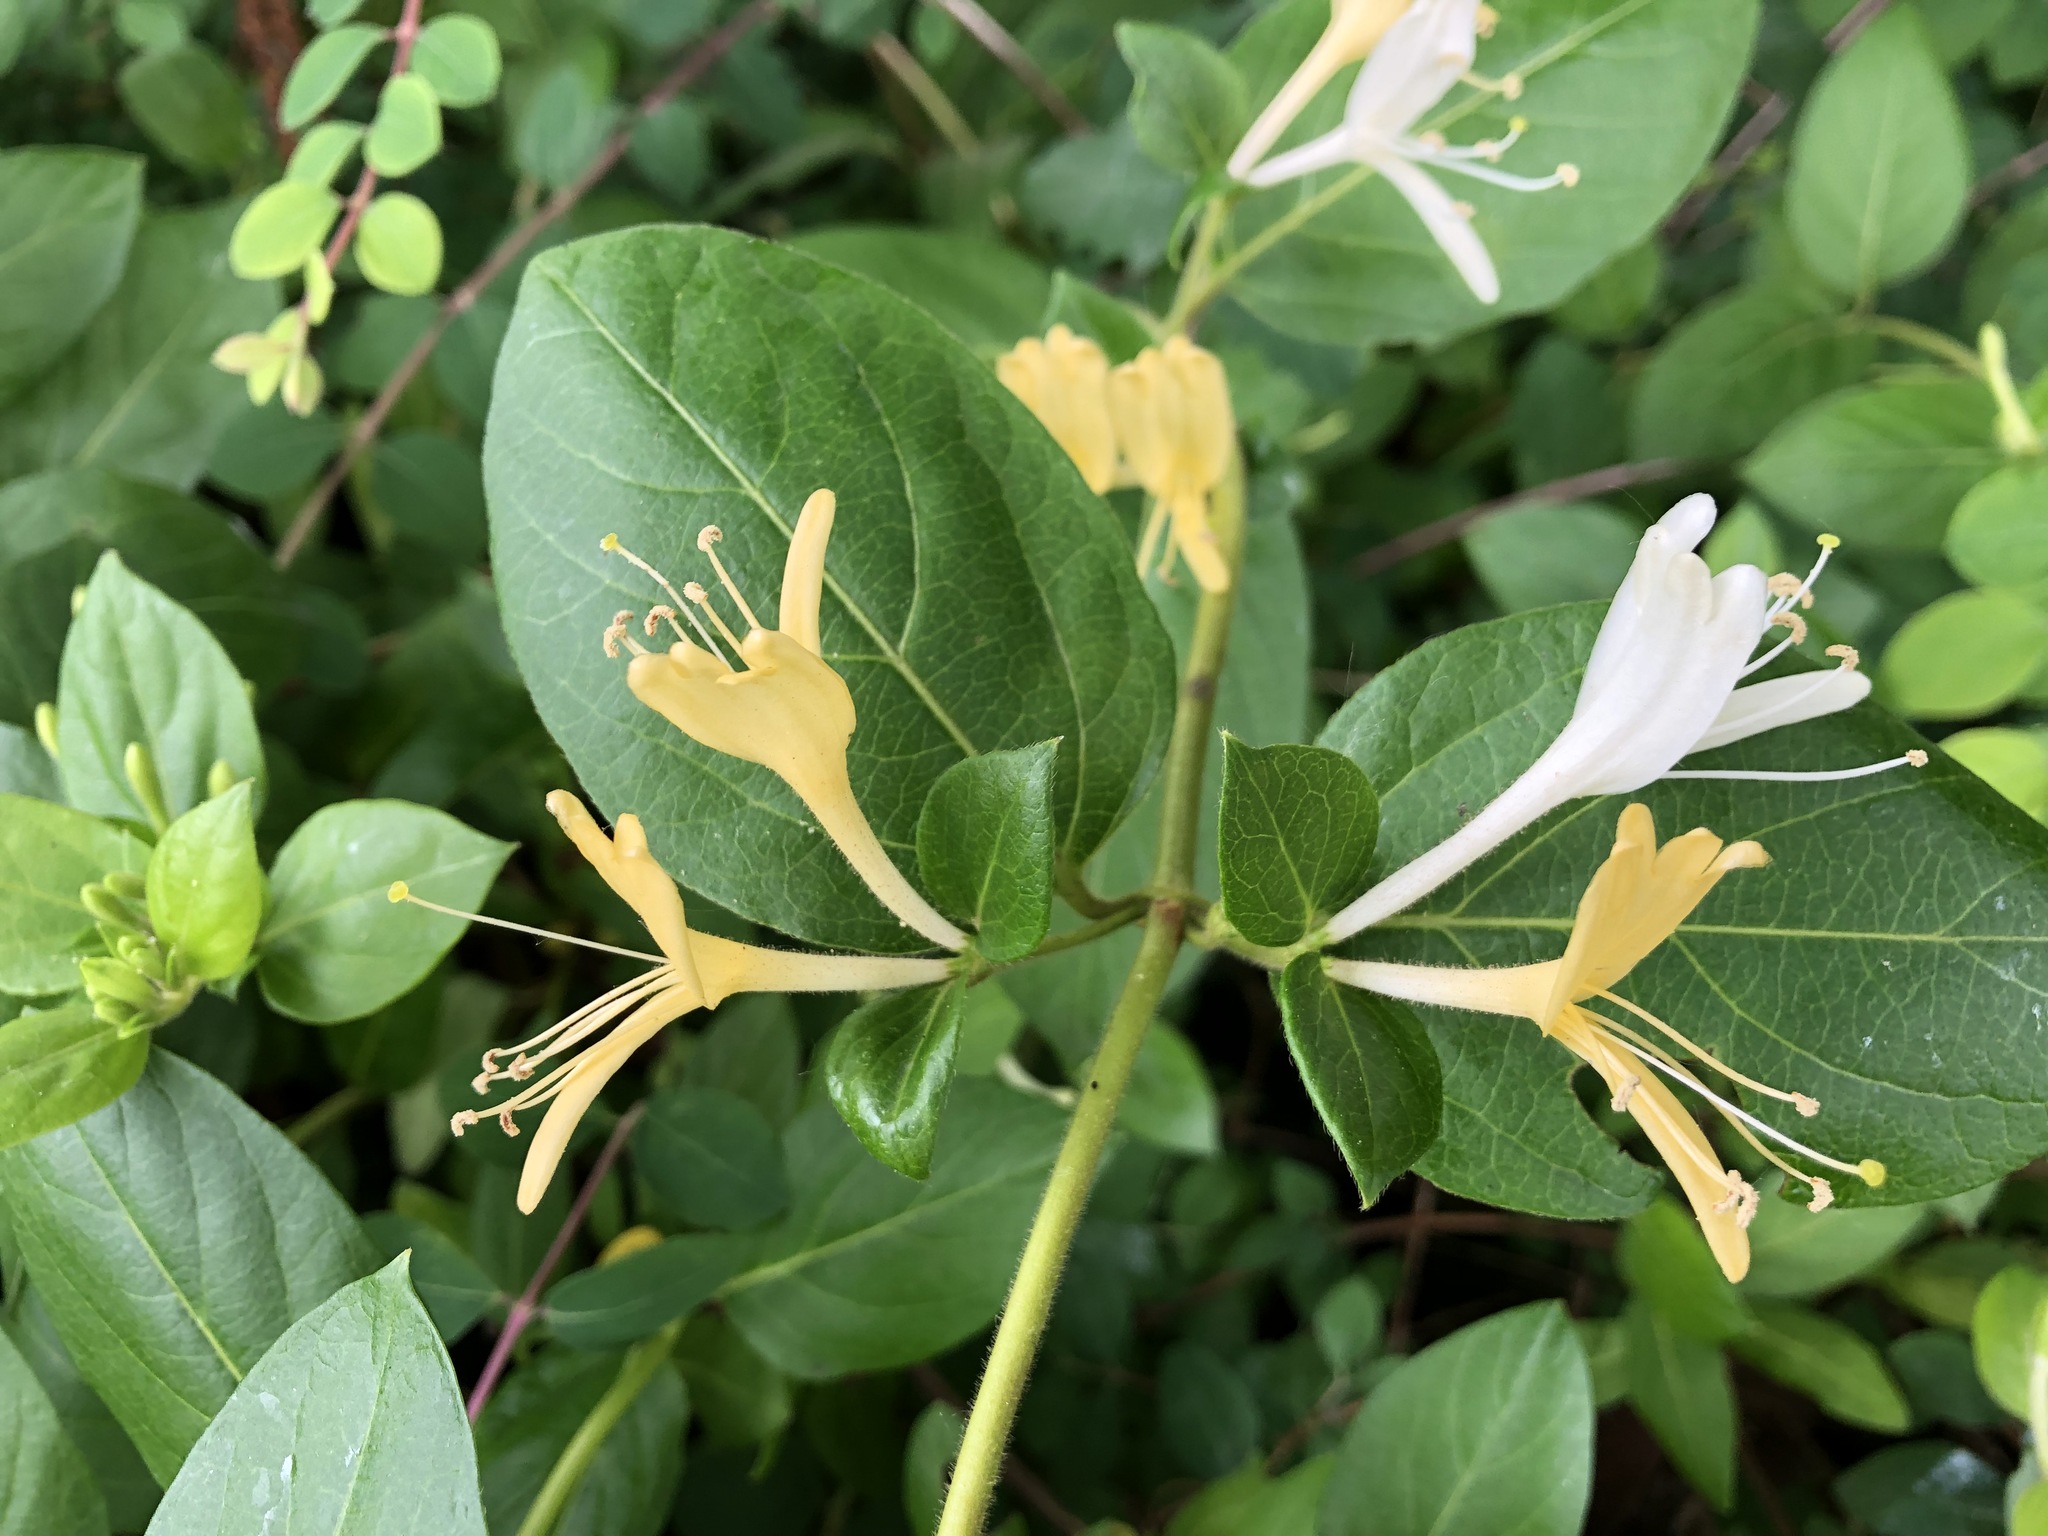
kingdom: Plantae
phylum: Tracheophyta
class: Magnoliopsida
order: Dipsacales
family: Caprifoliaceae
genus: Lonicera
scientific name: Lonicera japonica
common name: Japanese honeysuckle
